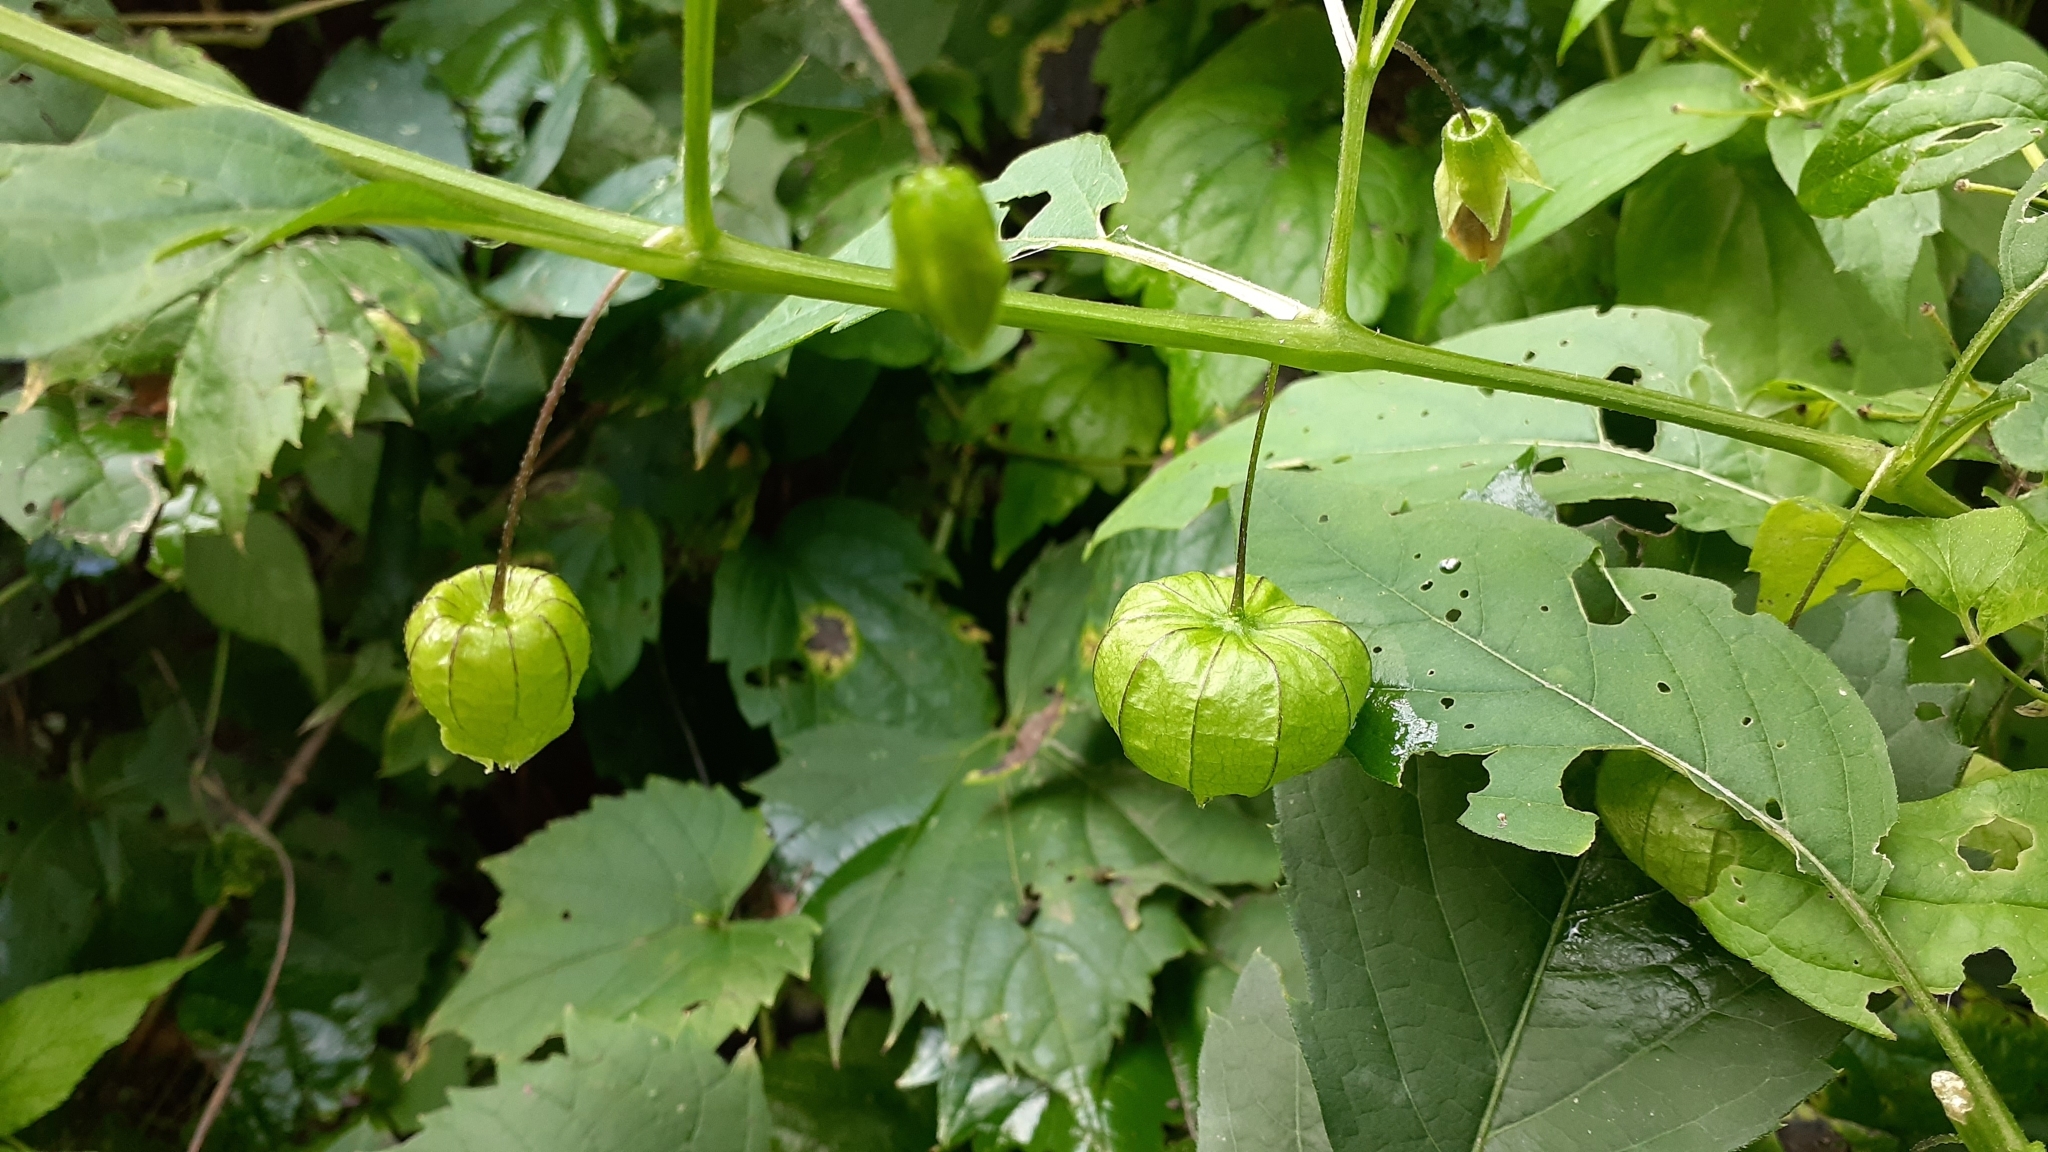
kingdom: Plantae
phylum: Tracheophyta
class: Magnoliopsida
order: Solanales
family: Solanaceae
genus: Physalis
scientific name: Physalis longifolia
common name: Common ground-cherry
